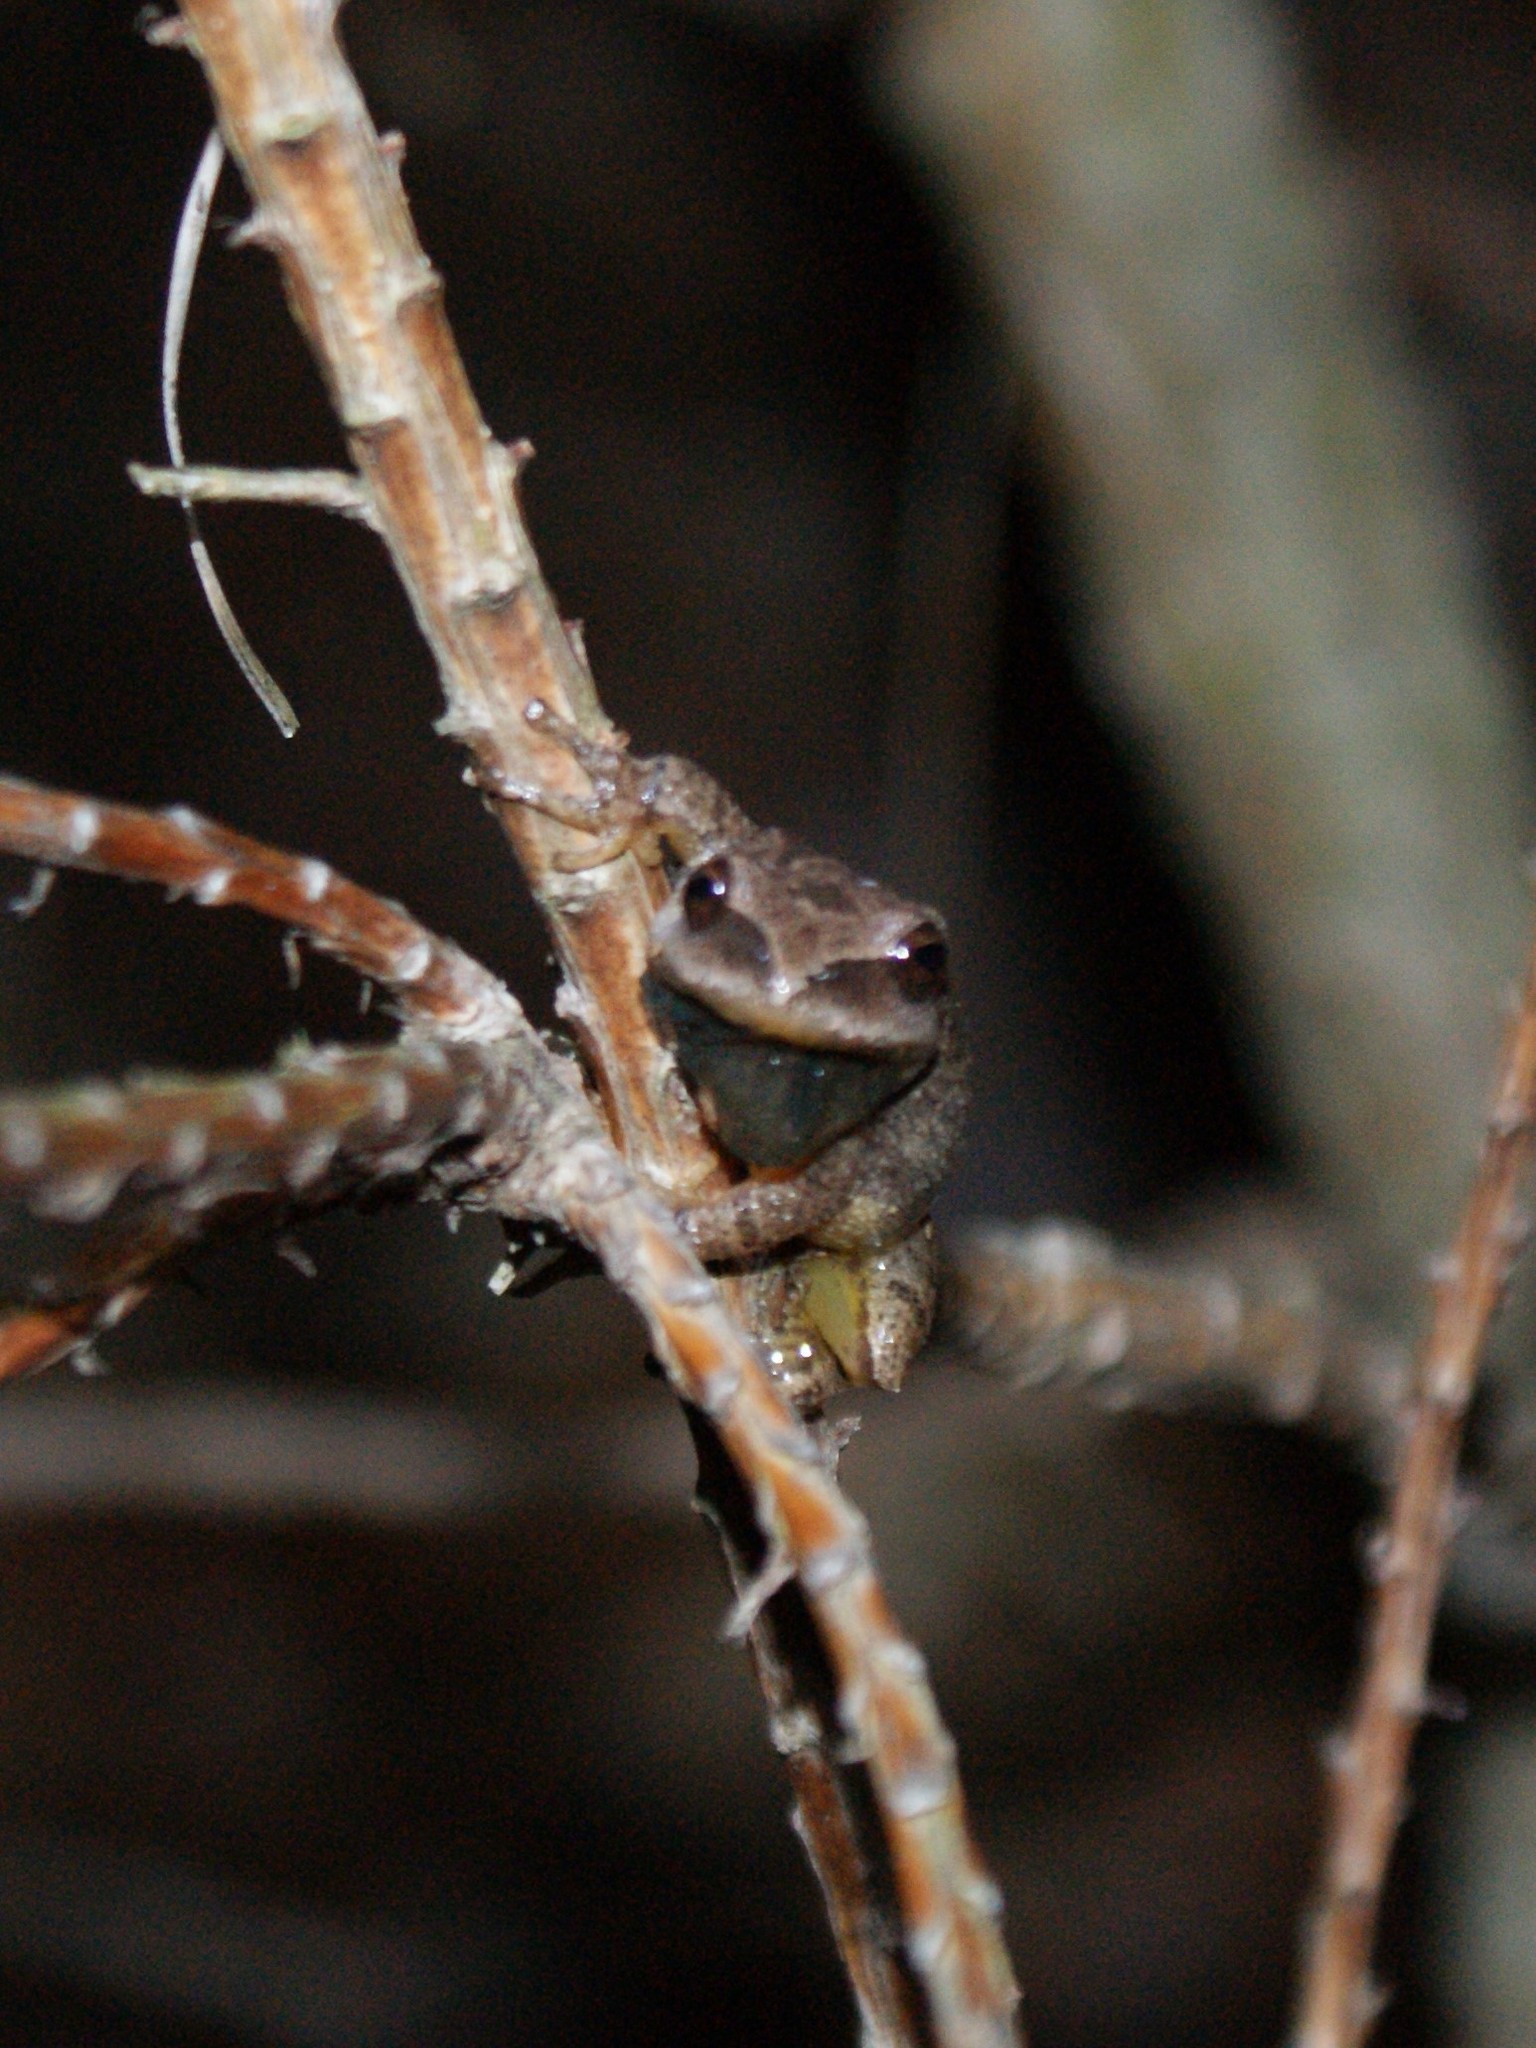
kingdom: Animalia
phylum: Chordata
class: Amphibia
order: Anura
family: Hylidae
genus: Pseudacris
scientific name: Pseudacris crucifer
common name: Spring peeper
